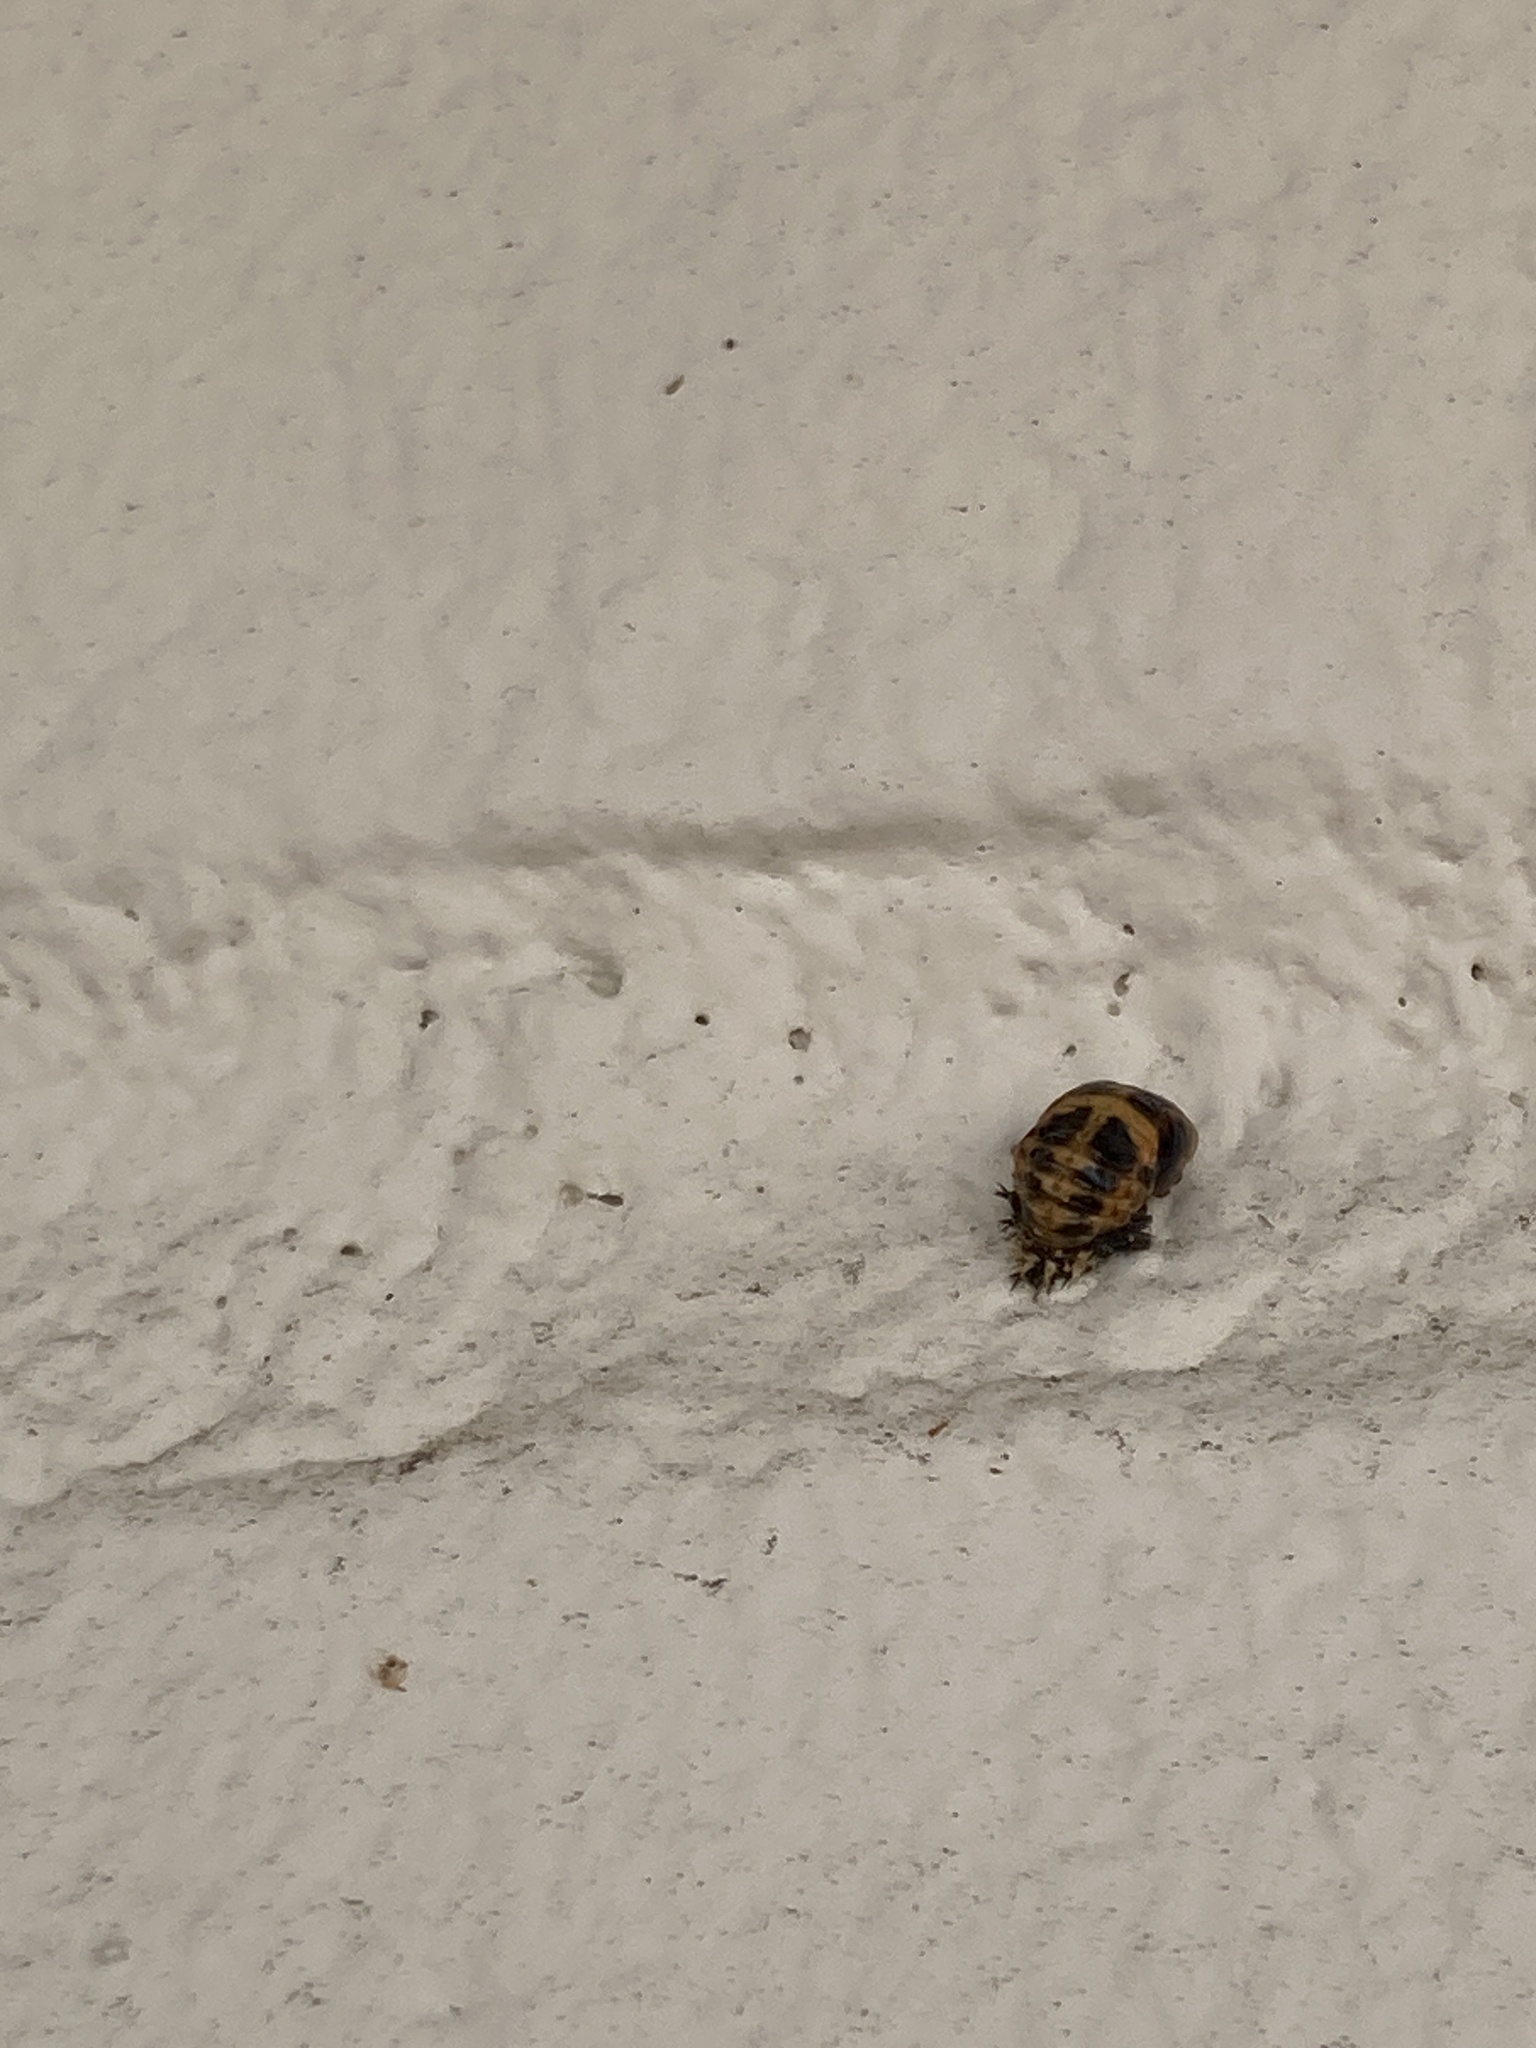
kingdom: Animalia
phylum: Arthropoda
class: Insecta
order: Coleoptera
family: Coccinellidae
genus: Harmonia
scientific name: Harmonia axyridis
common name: Harlequin ladybird
